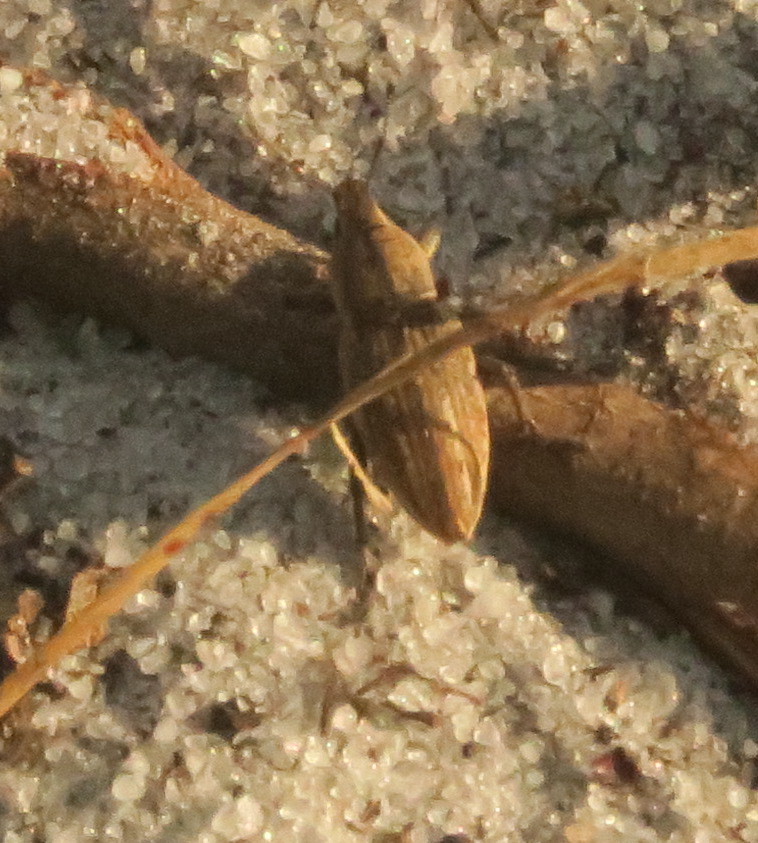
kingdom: Animalia
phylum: Arthropoda
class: Insecta
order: Coleoptera
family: Curculionidae
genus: Tanymecus
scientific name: Tanymecus lacaena
